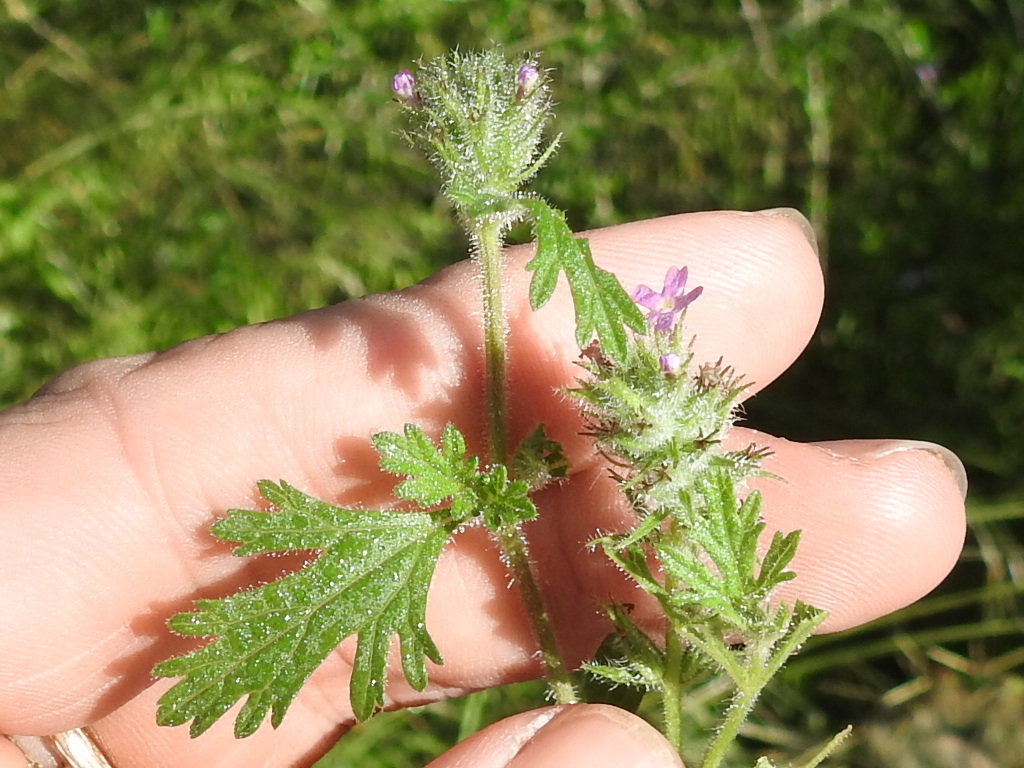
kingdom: Plantae
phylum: Tracheophyta
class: Magnoliopsida
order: Lamiales
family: Verbenaceae
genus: Verbena
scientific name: Verbena pumila
